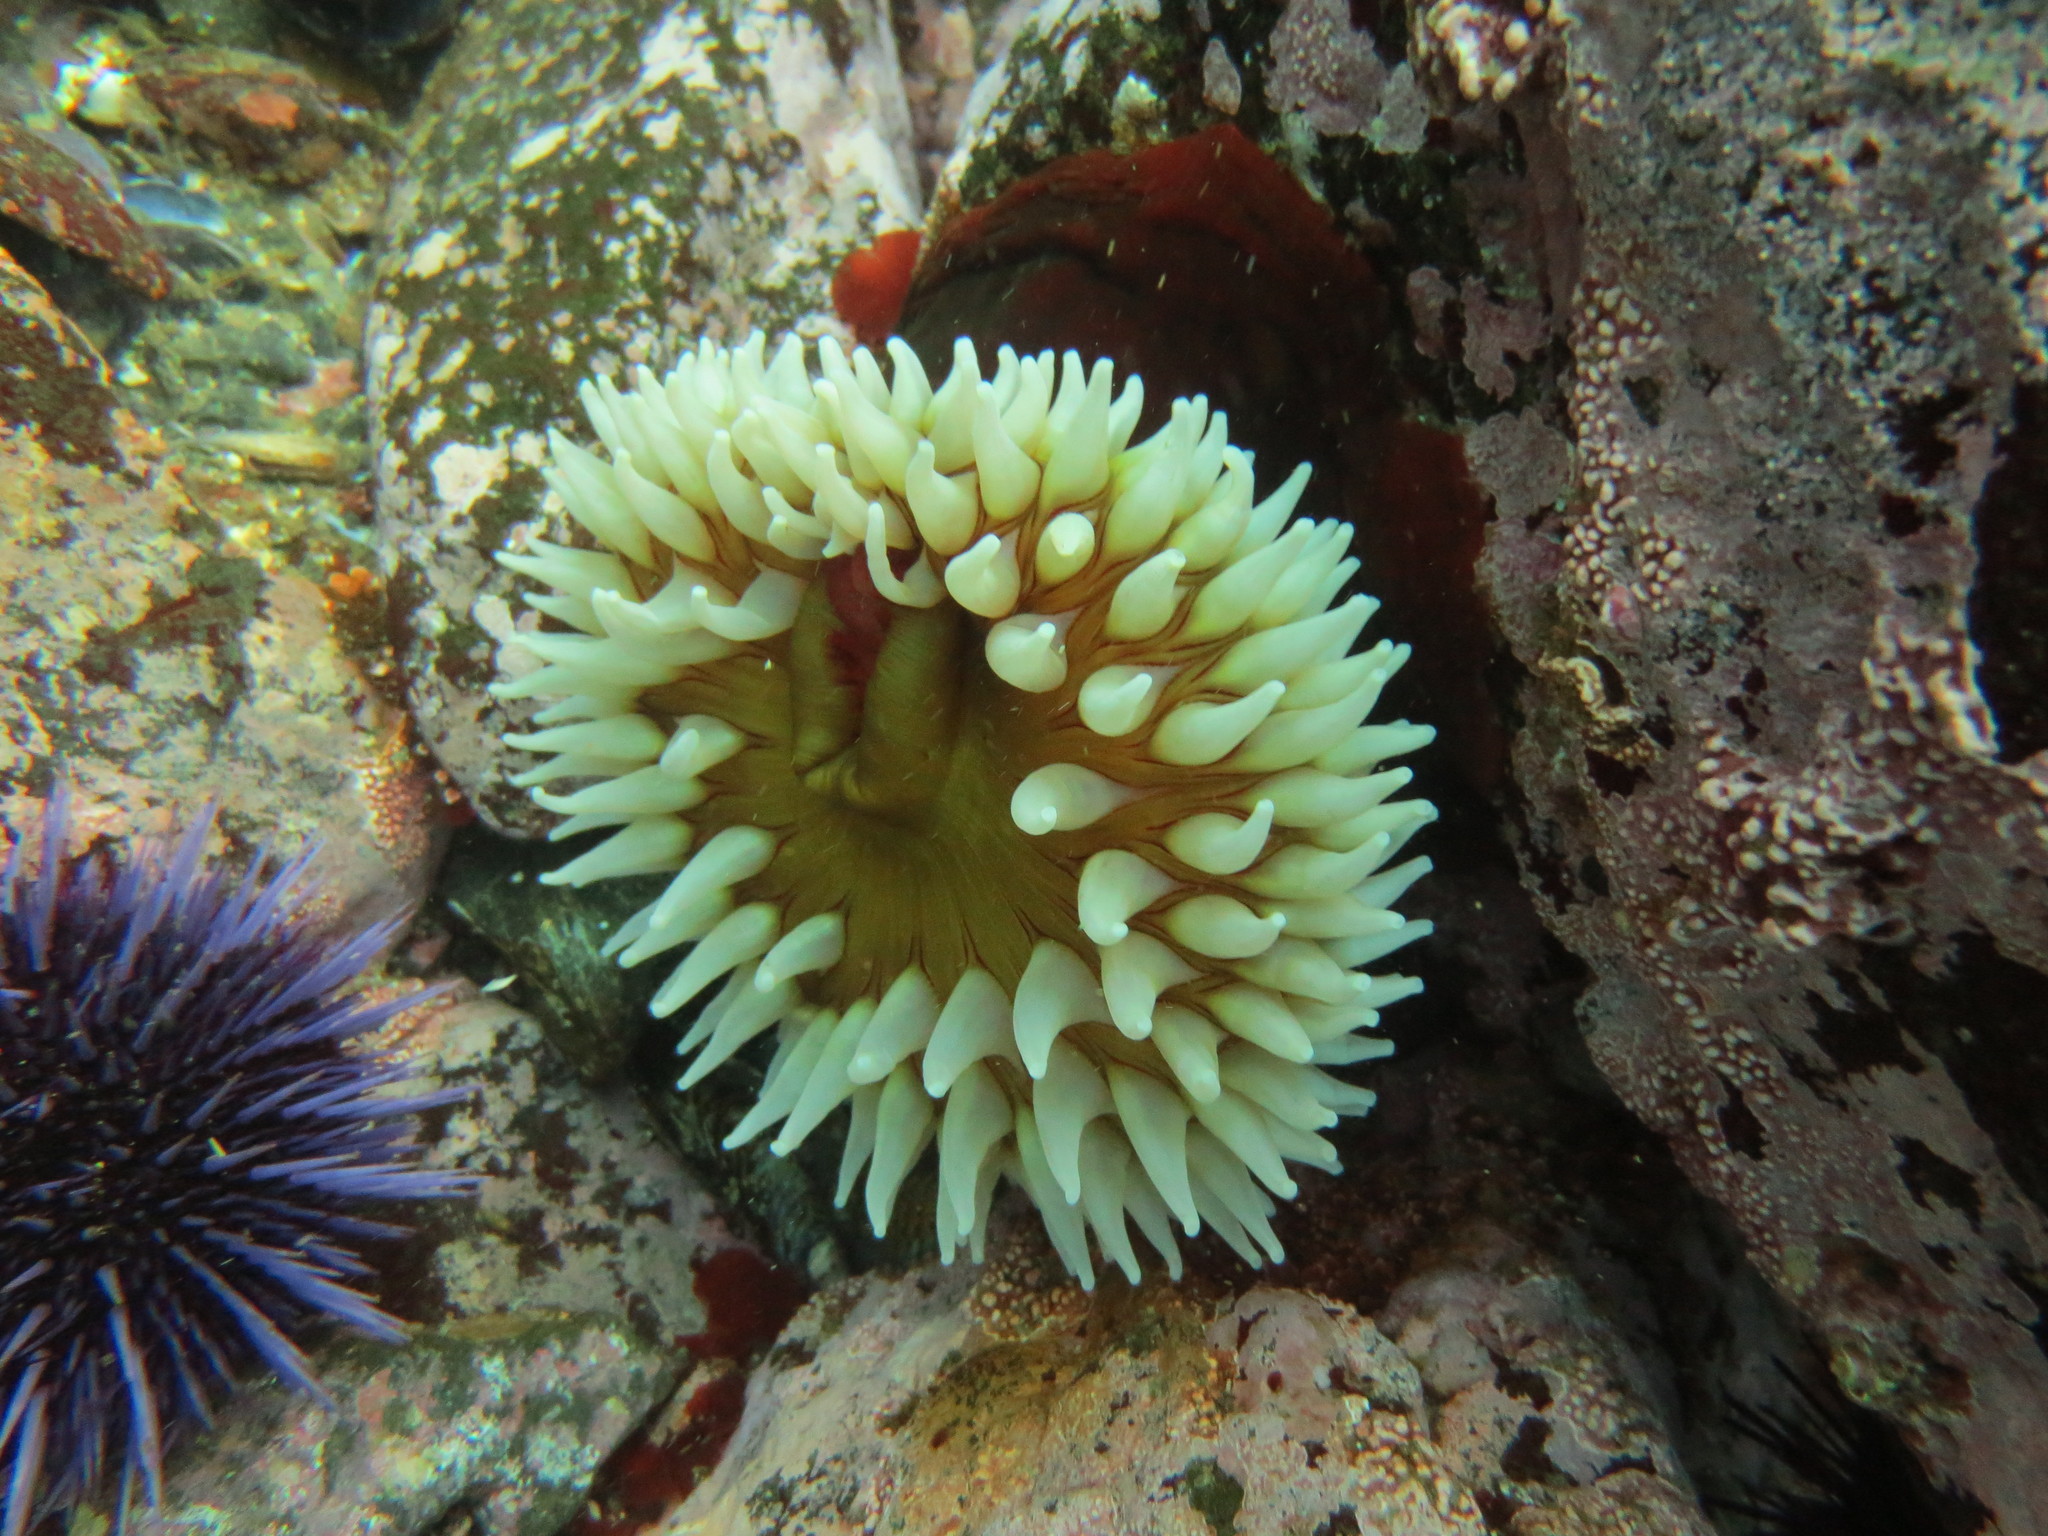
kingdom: Animalia
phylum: Cnidaria
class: Anthozoa
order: Actiniaria
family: Actiniidae
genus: Urticina
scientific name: Urticina piscivora
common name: Velvety red anemone
